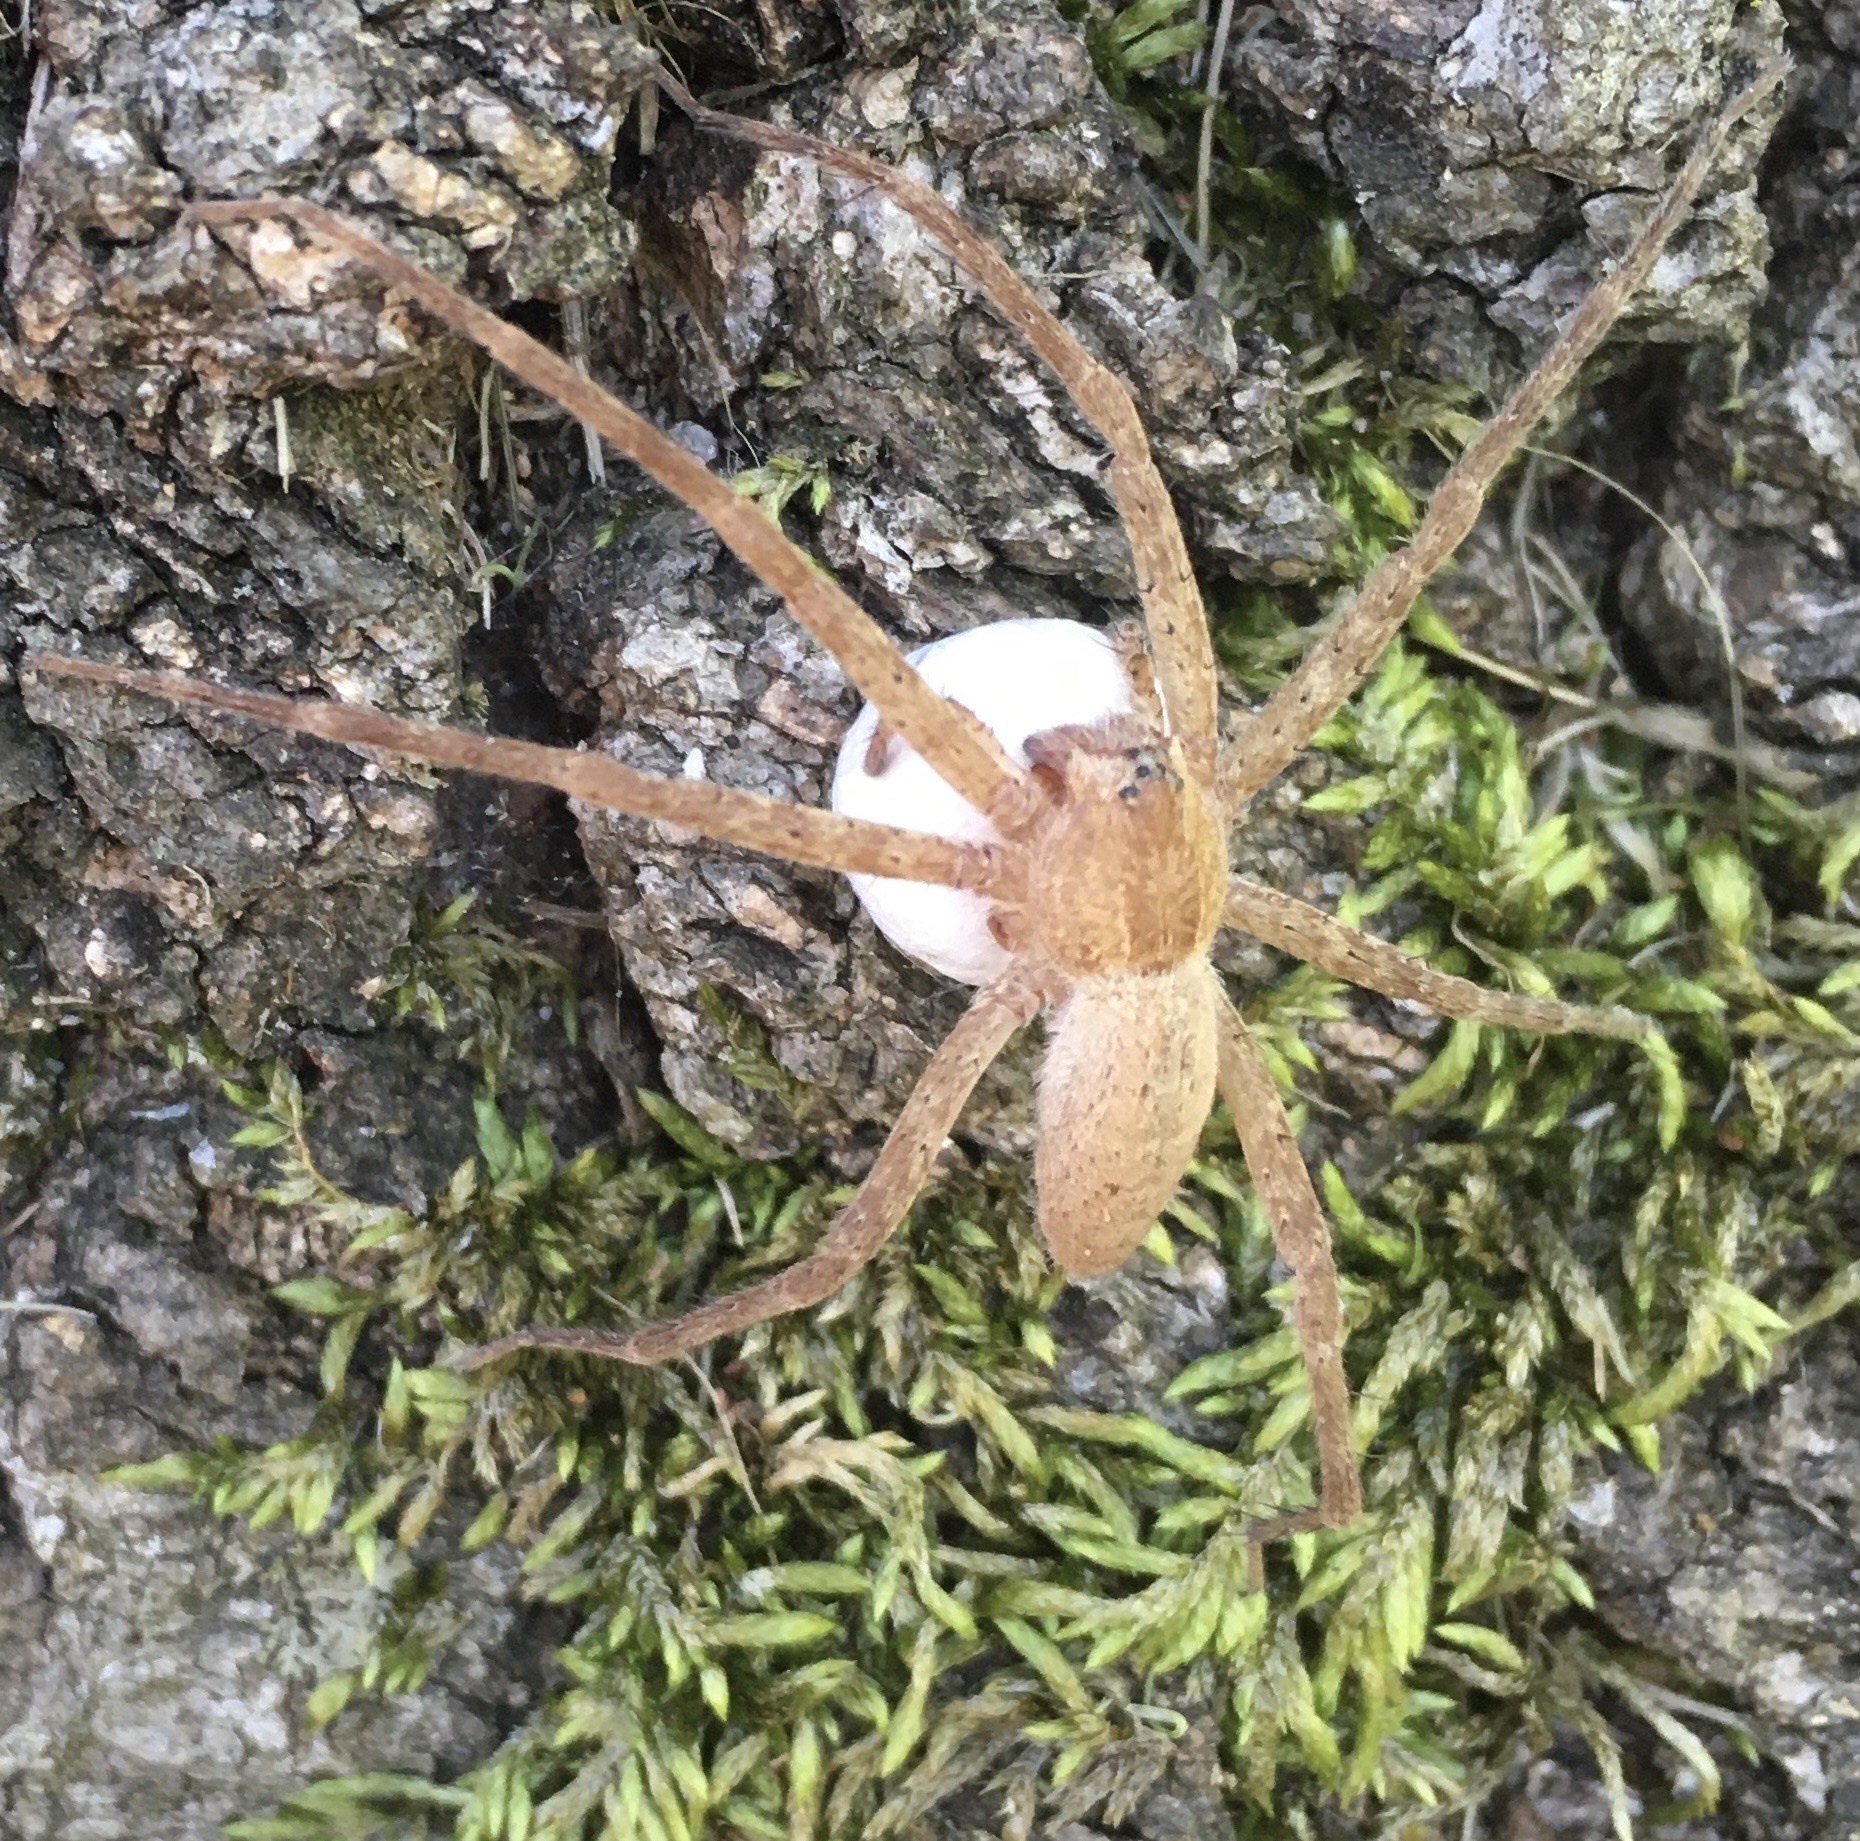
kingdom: Animalia
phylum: Arthropoda
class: Arachnida
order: Araneae
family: Pisauridae
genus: Pisaurina
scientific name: Pisaurina mira
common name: American nursery web spider
